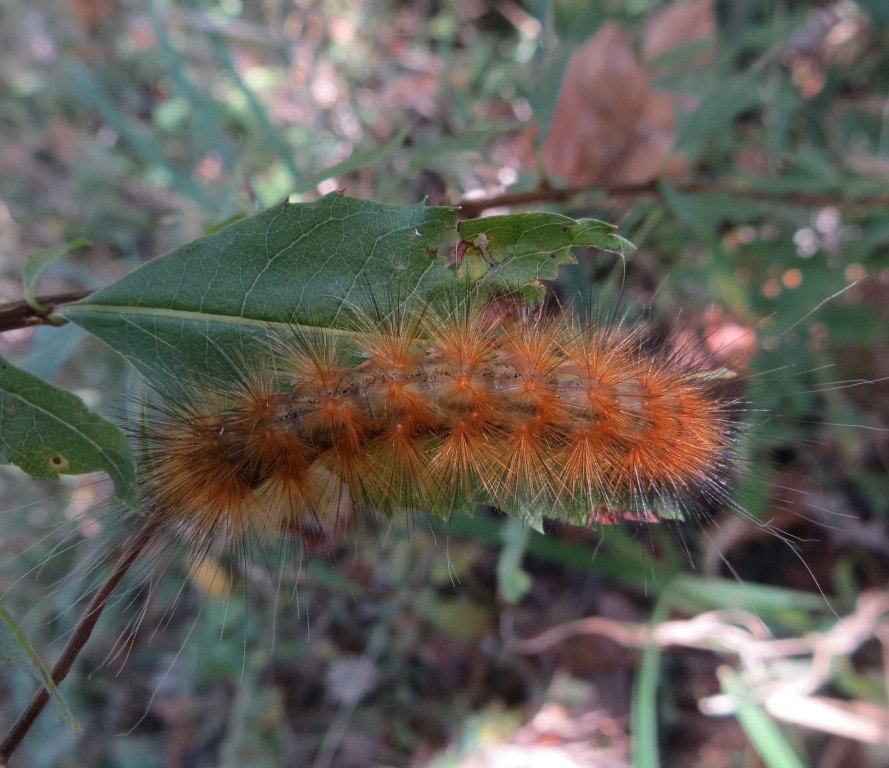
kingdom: Animalia
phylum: Arthropoda
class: Insecta
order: Lepidoptera
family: Erebidae
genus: Spilosoma
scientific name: Spilosoma virginica
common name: Virginia tiger moth
